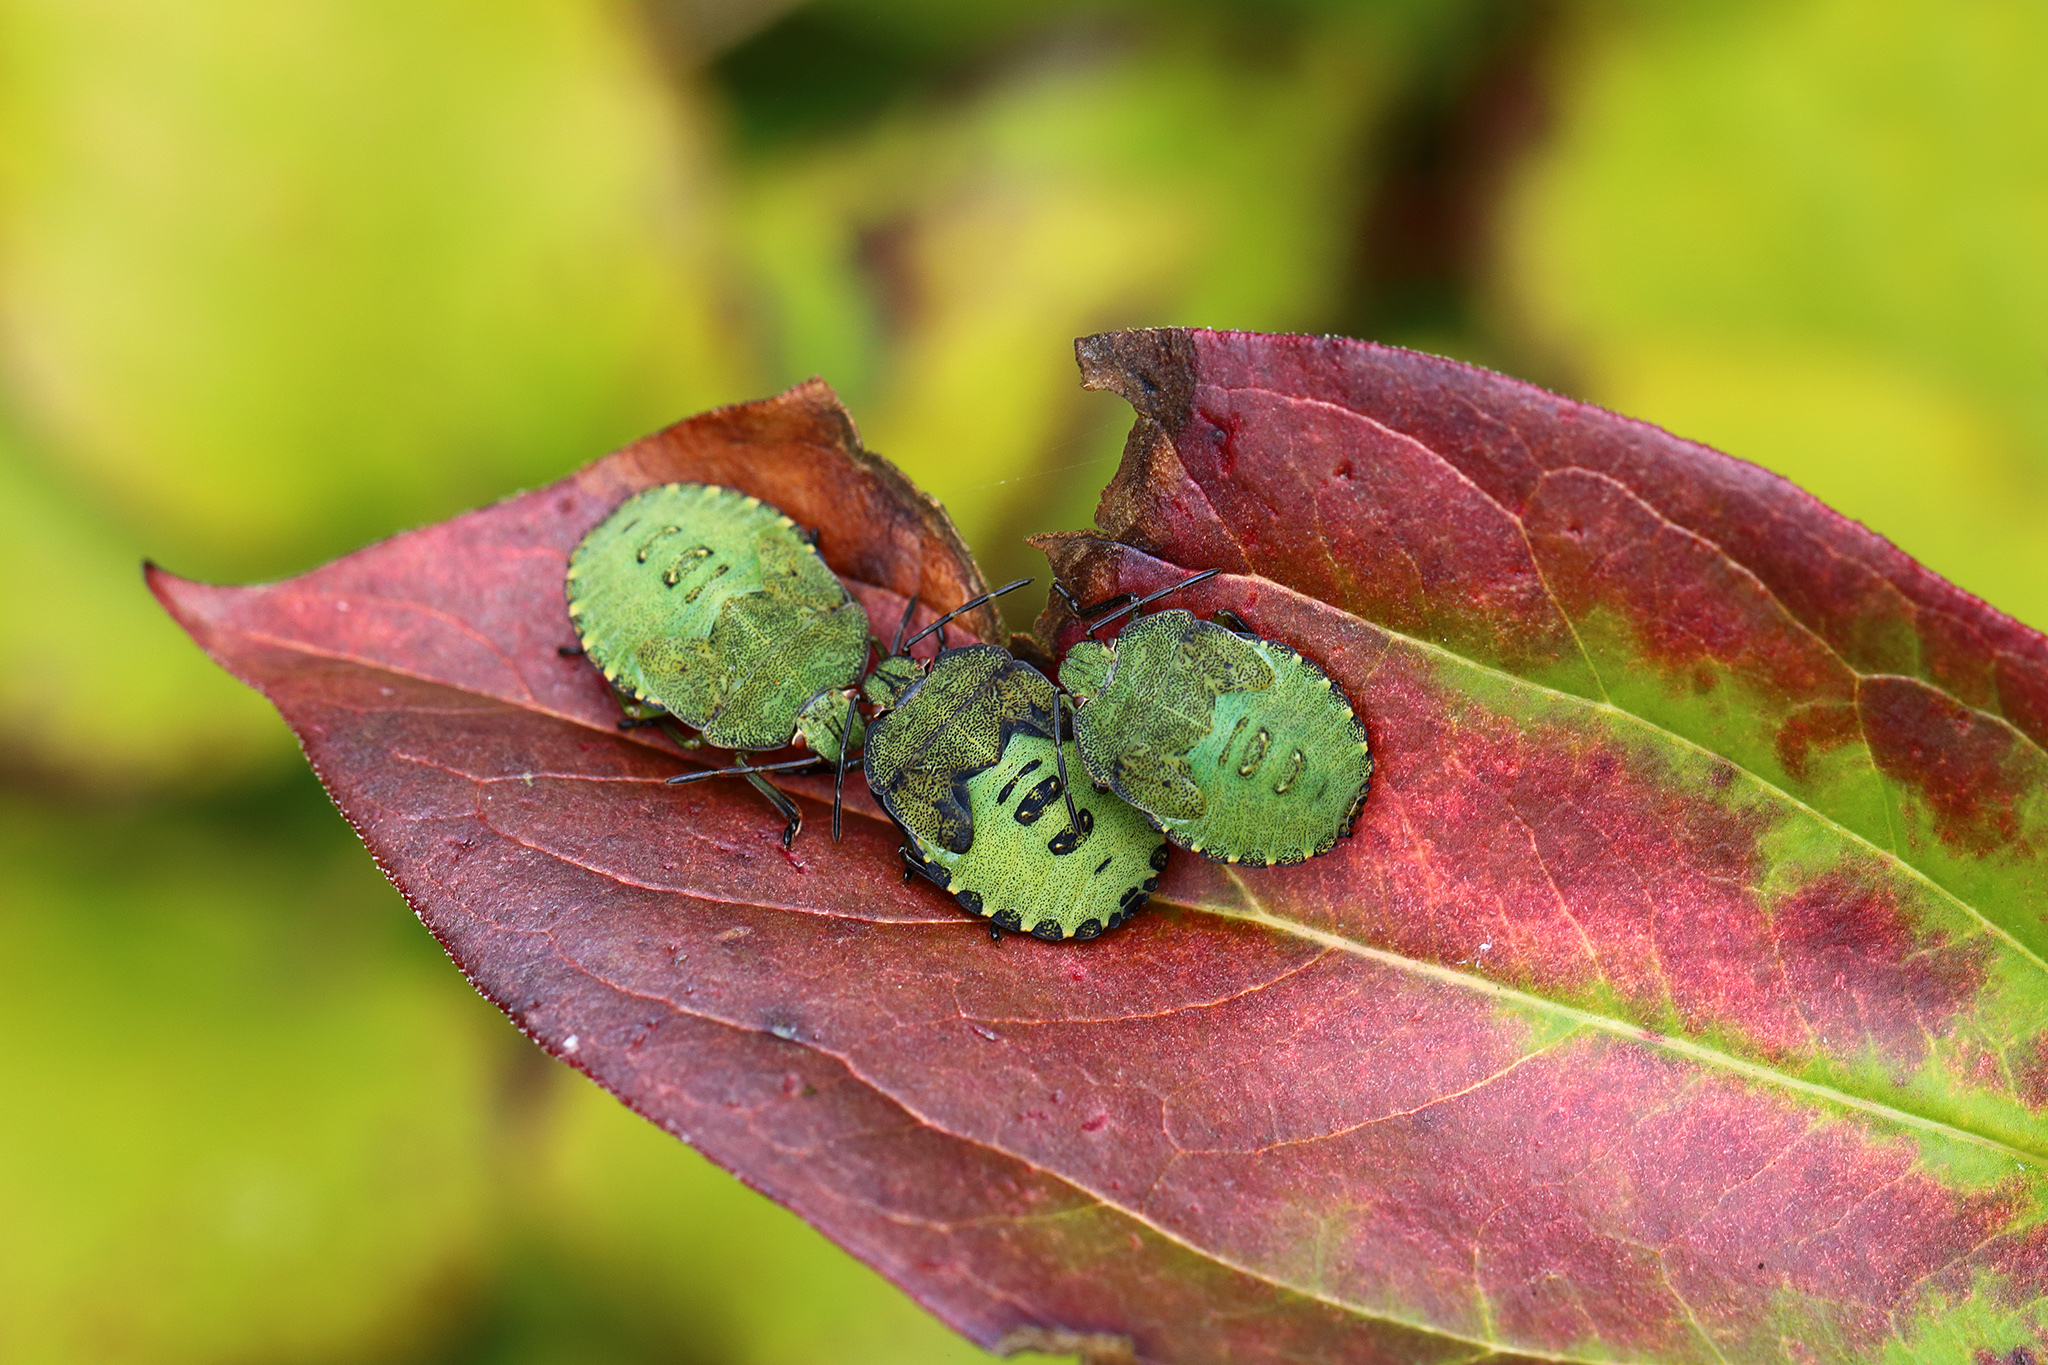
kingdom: Animalia
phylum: Arthropoda
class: Insecta
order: Hemiptera
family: Pentatomidae
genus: Palomena
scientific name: Palomena prasina
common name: Green shieldbug
